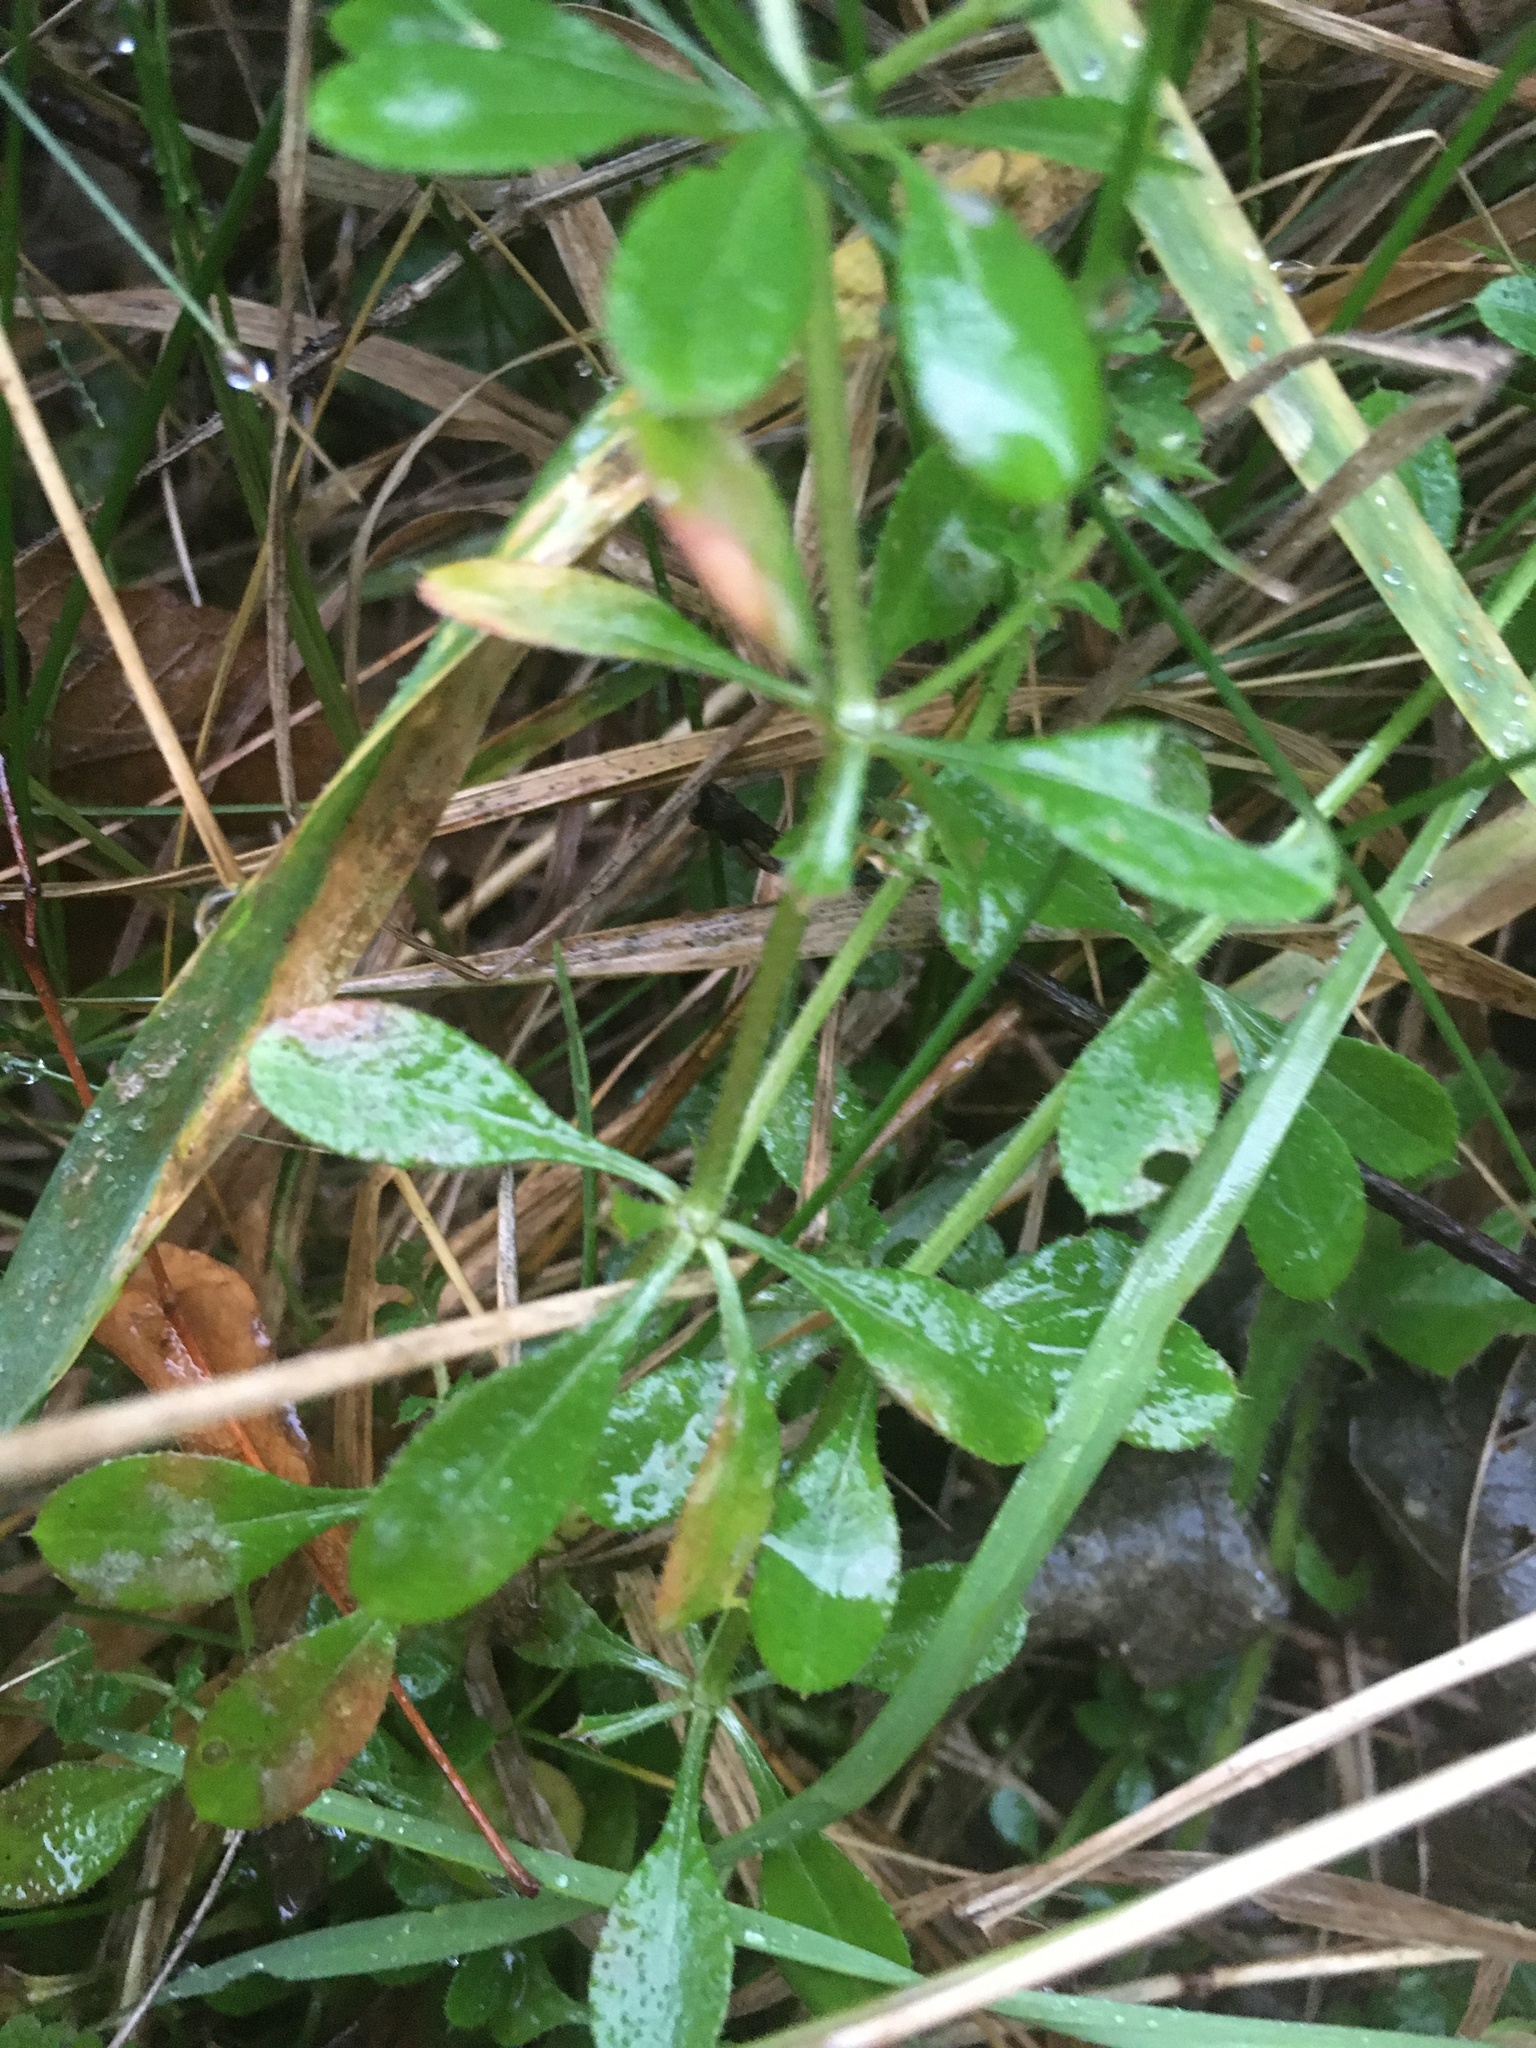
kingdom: Plantae
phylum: Tracheophyta
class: Magnoliopsida
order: Gentianales
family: Rubiaceae
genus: Galium
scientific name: Galium aparine
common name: Cleavers
